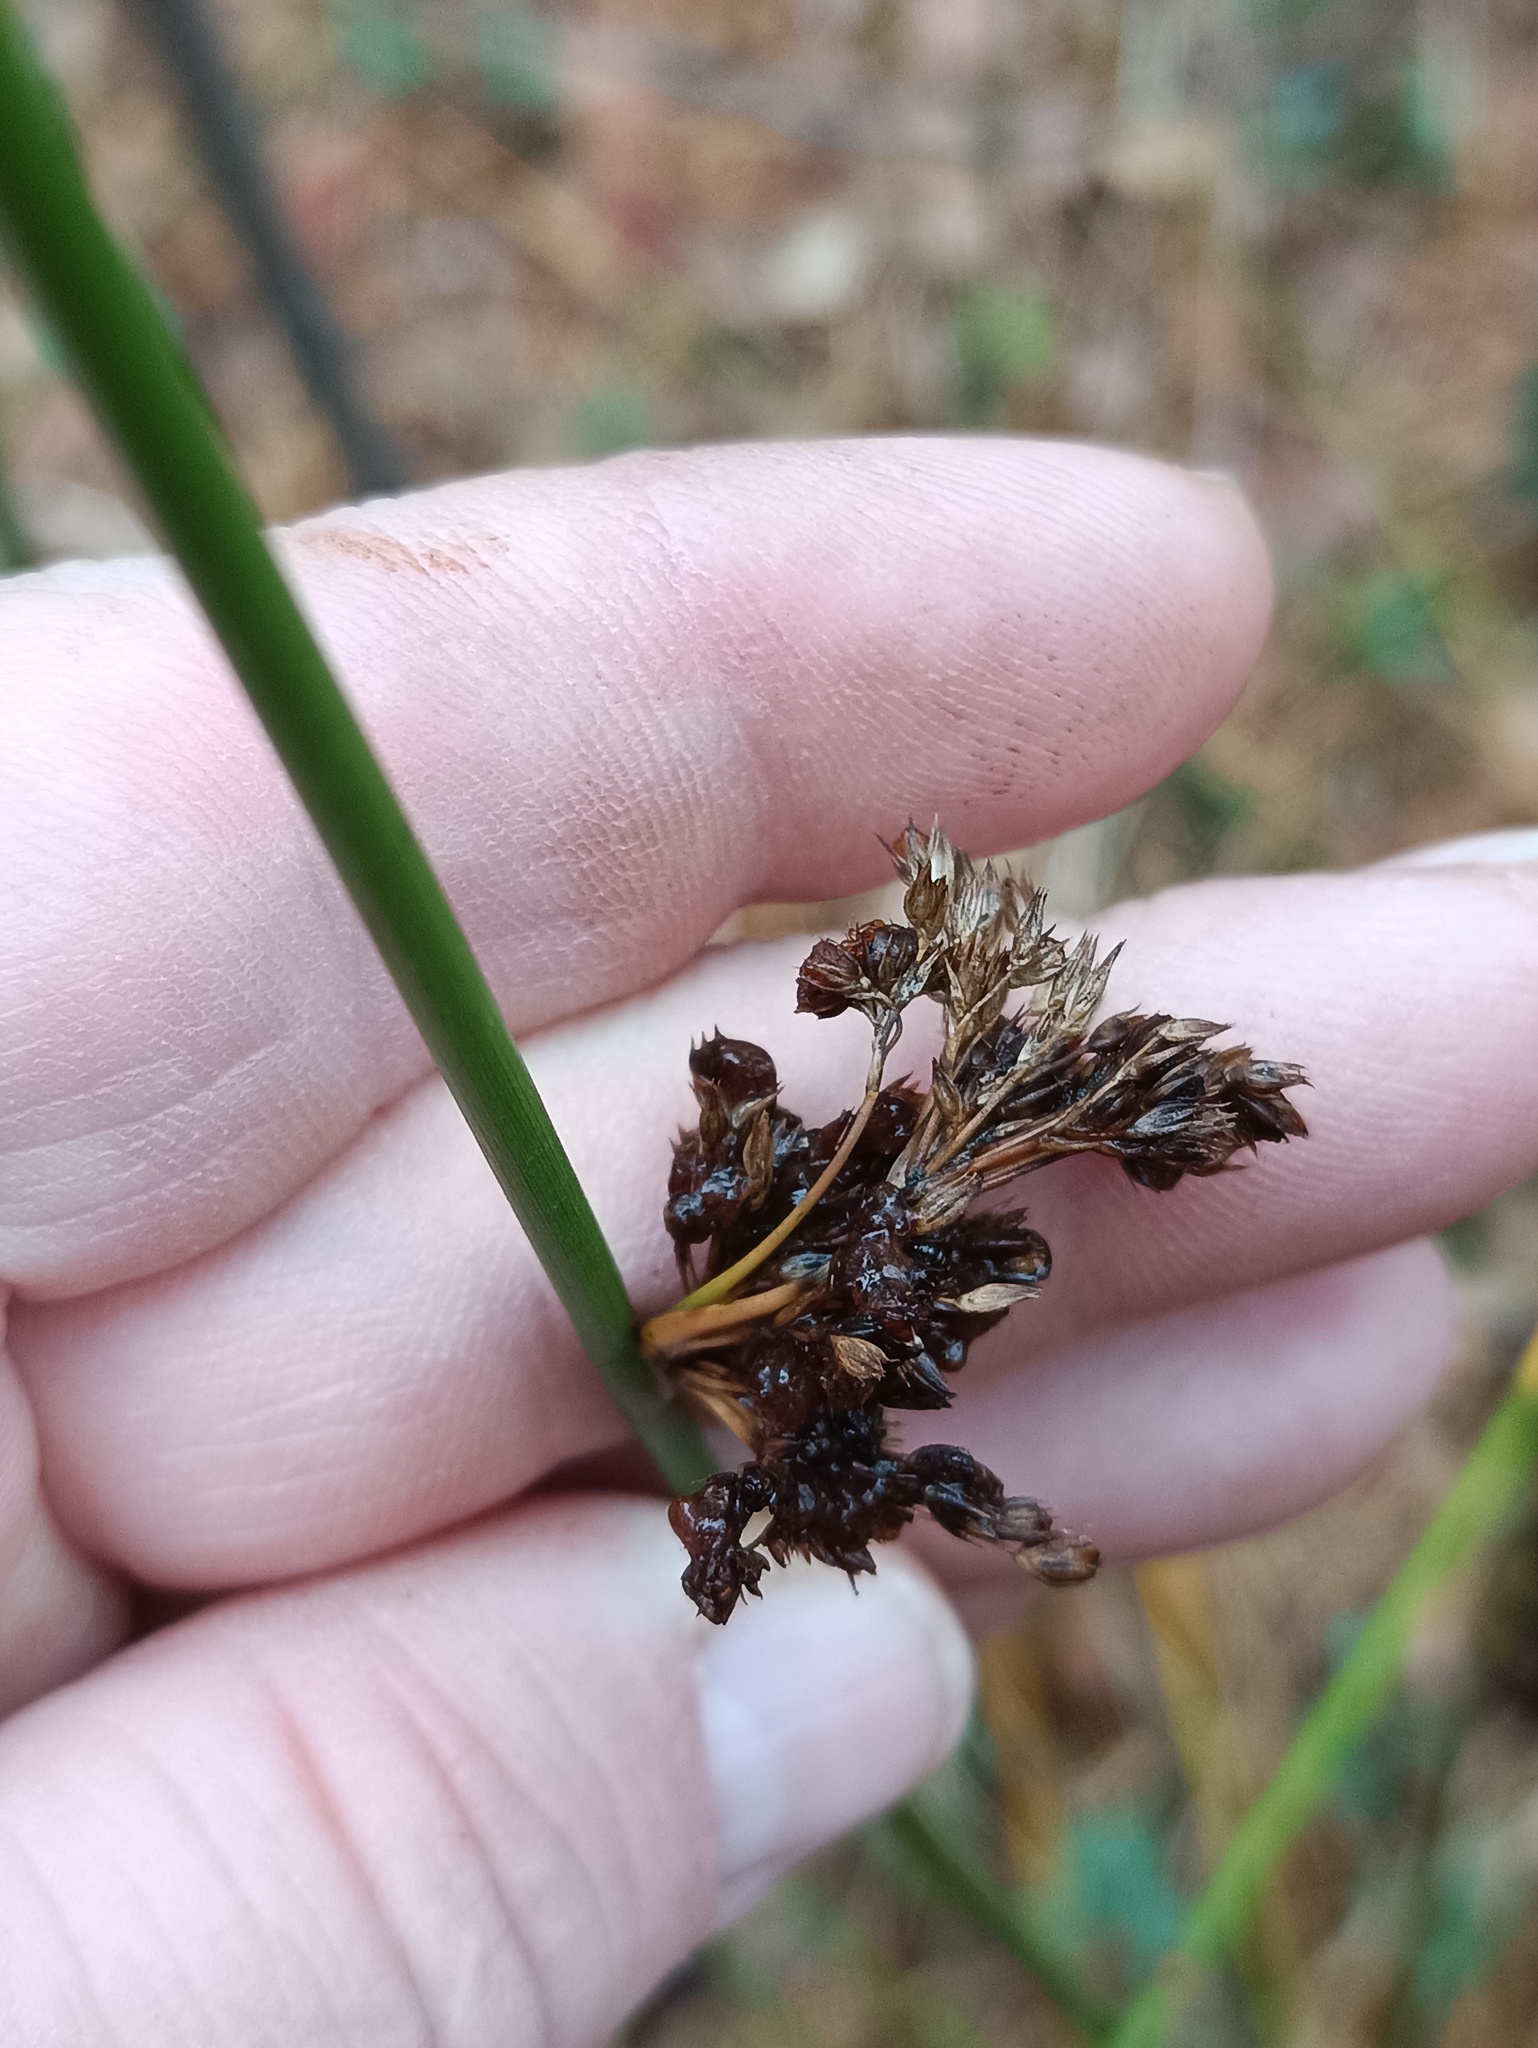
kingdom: Plantae
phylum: Tracheophyta
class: Liliopsida
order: Poales
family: Juncaceae
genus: Juncus
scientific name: Juncus effusus
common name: Soft rush
